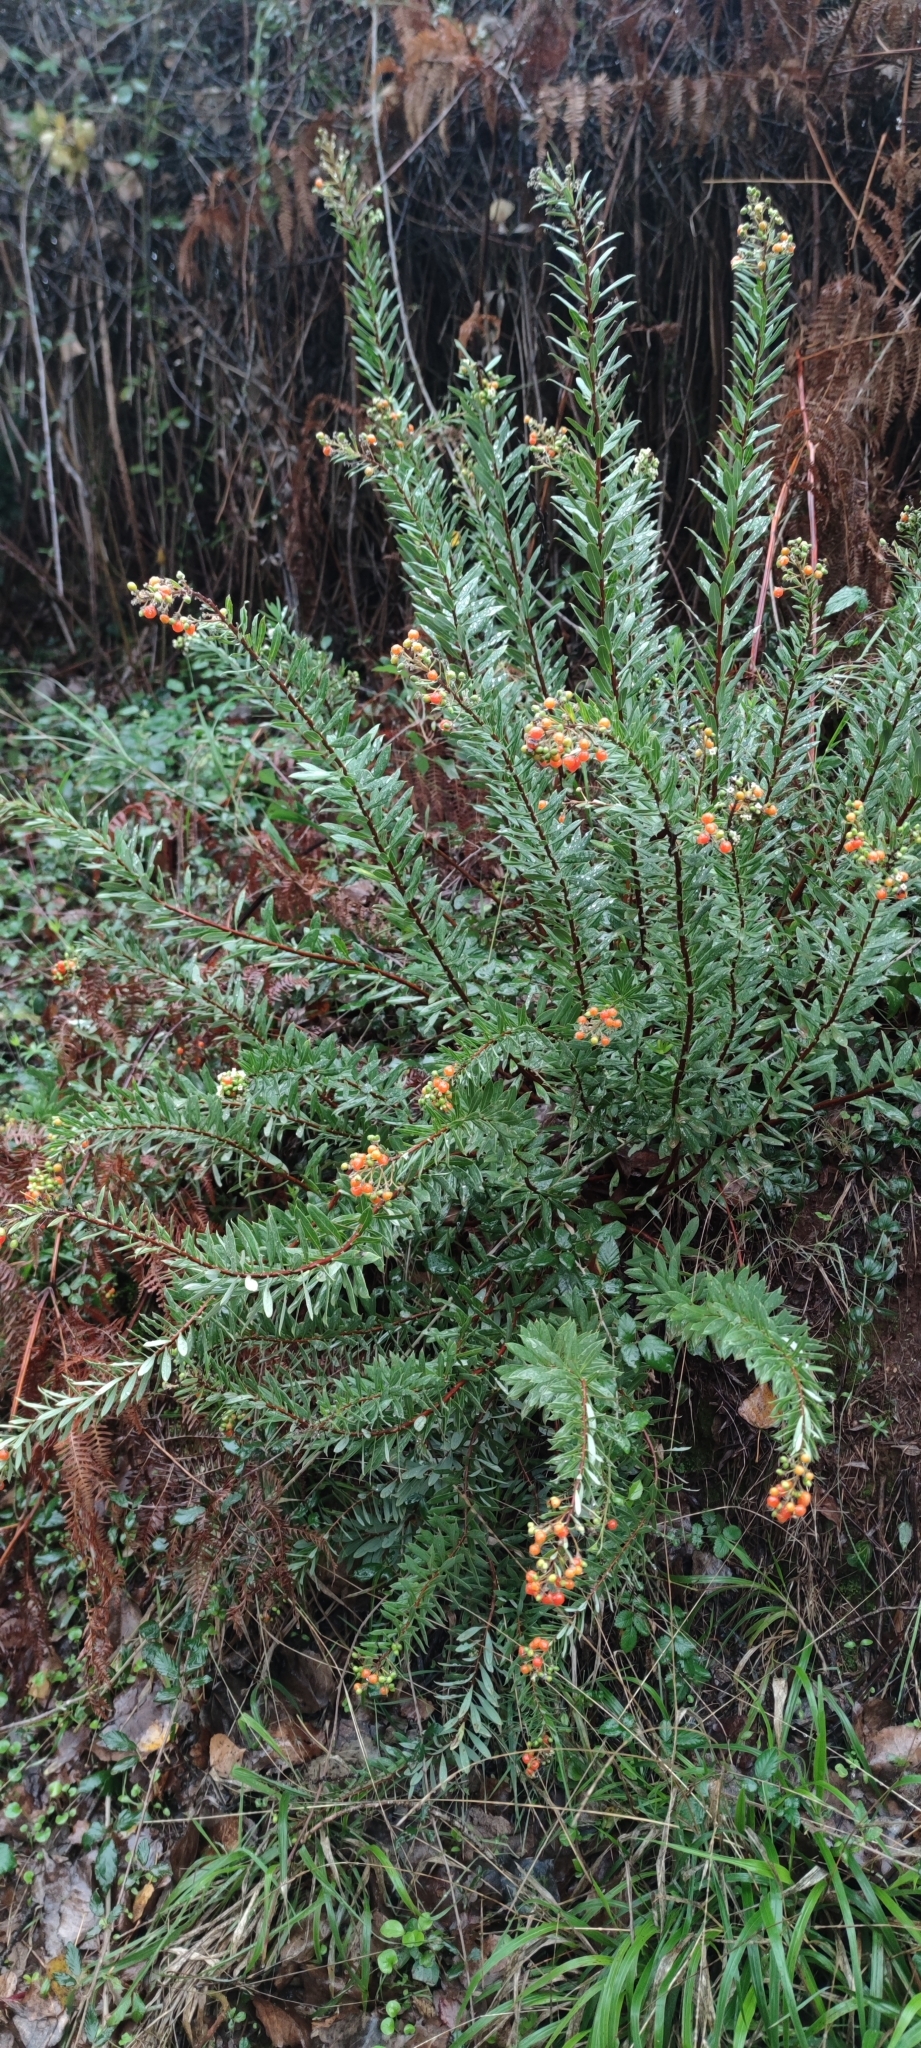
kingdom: Plantae
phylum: Tracheophyta
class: Magnoliopsida
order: Malvales
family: Thymelaeaceae
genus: Daphne
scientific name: Daphne gnidium
